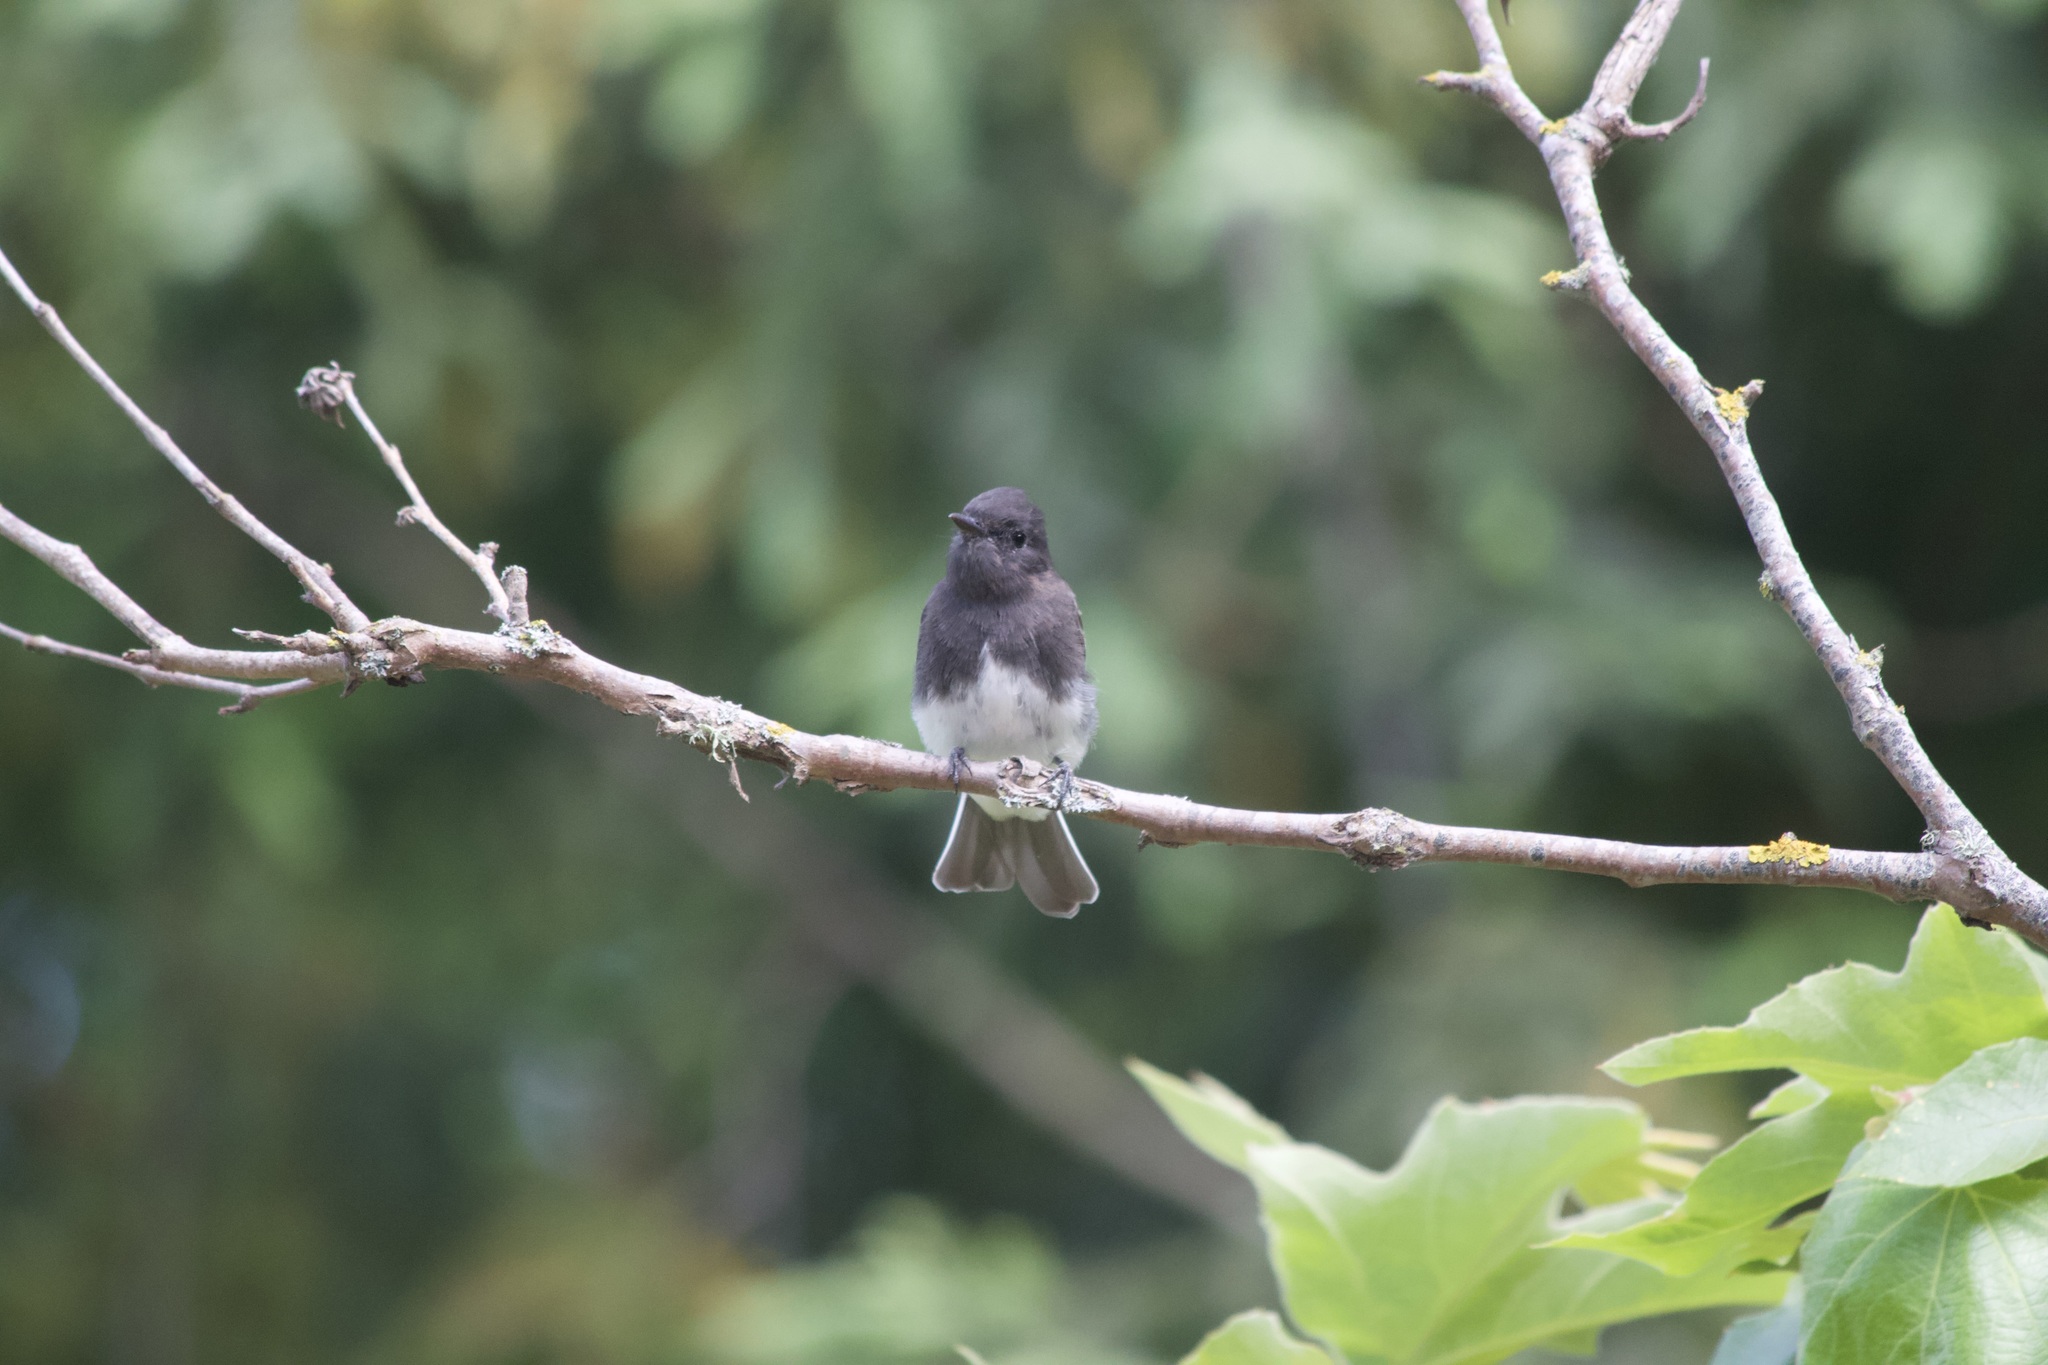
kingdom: Animalia
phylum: Chordata
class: Aves
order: Passeriformes
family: Tyrannidae
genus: Sayornis
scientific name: Sayornis nigricans
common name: Black phoebe
